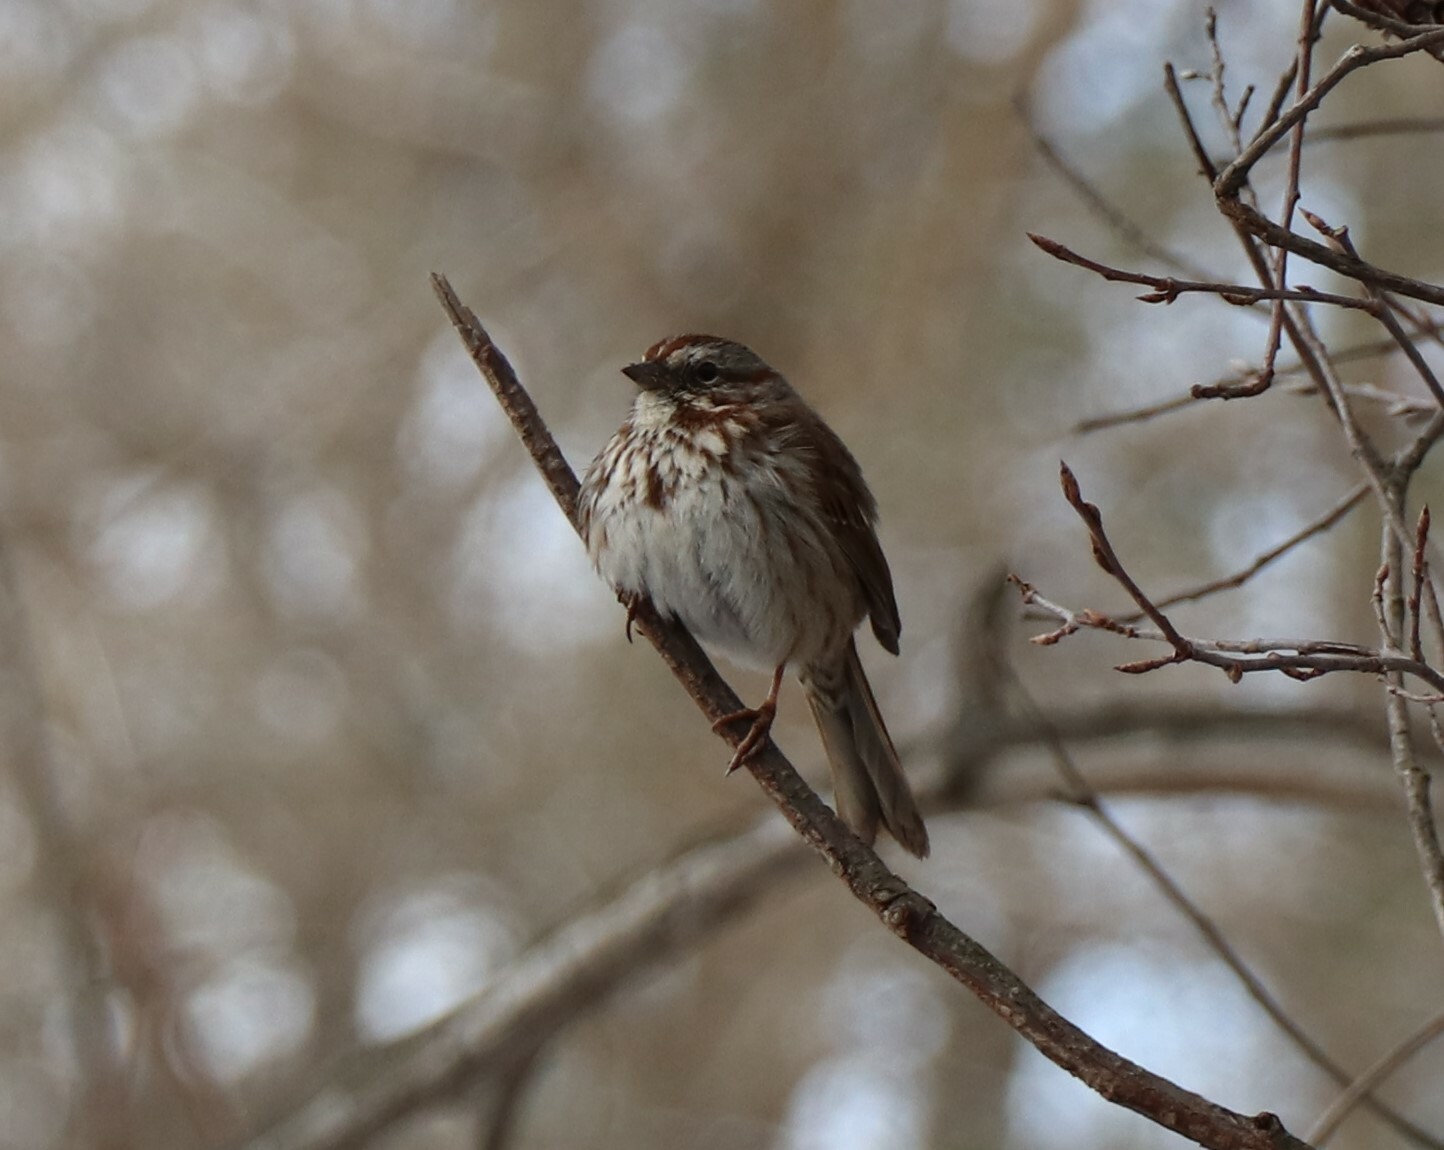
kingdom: Animalia
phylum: Chordata
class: Aves
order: Passeriformes
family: Passerellidae
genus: Melospiza
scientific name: Melospiza melodia
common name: Song sparrow
